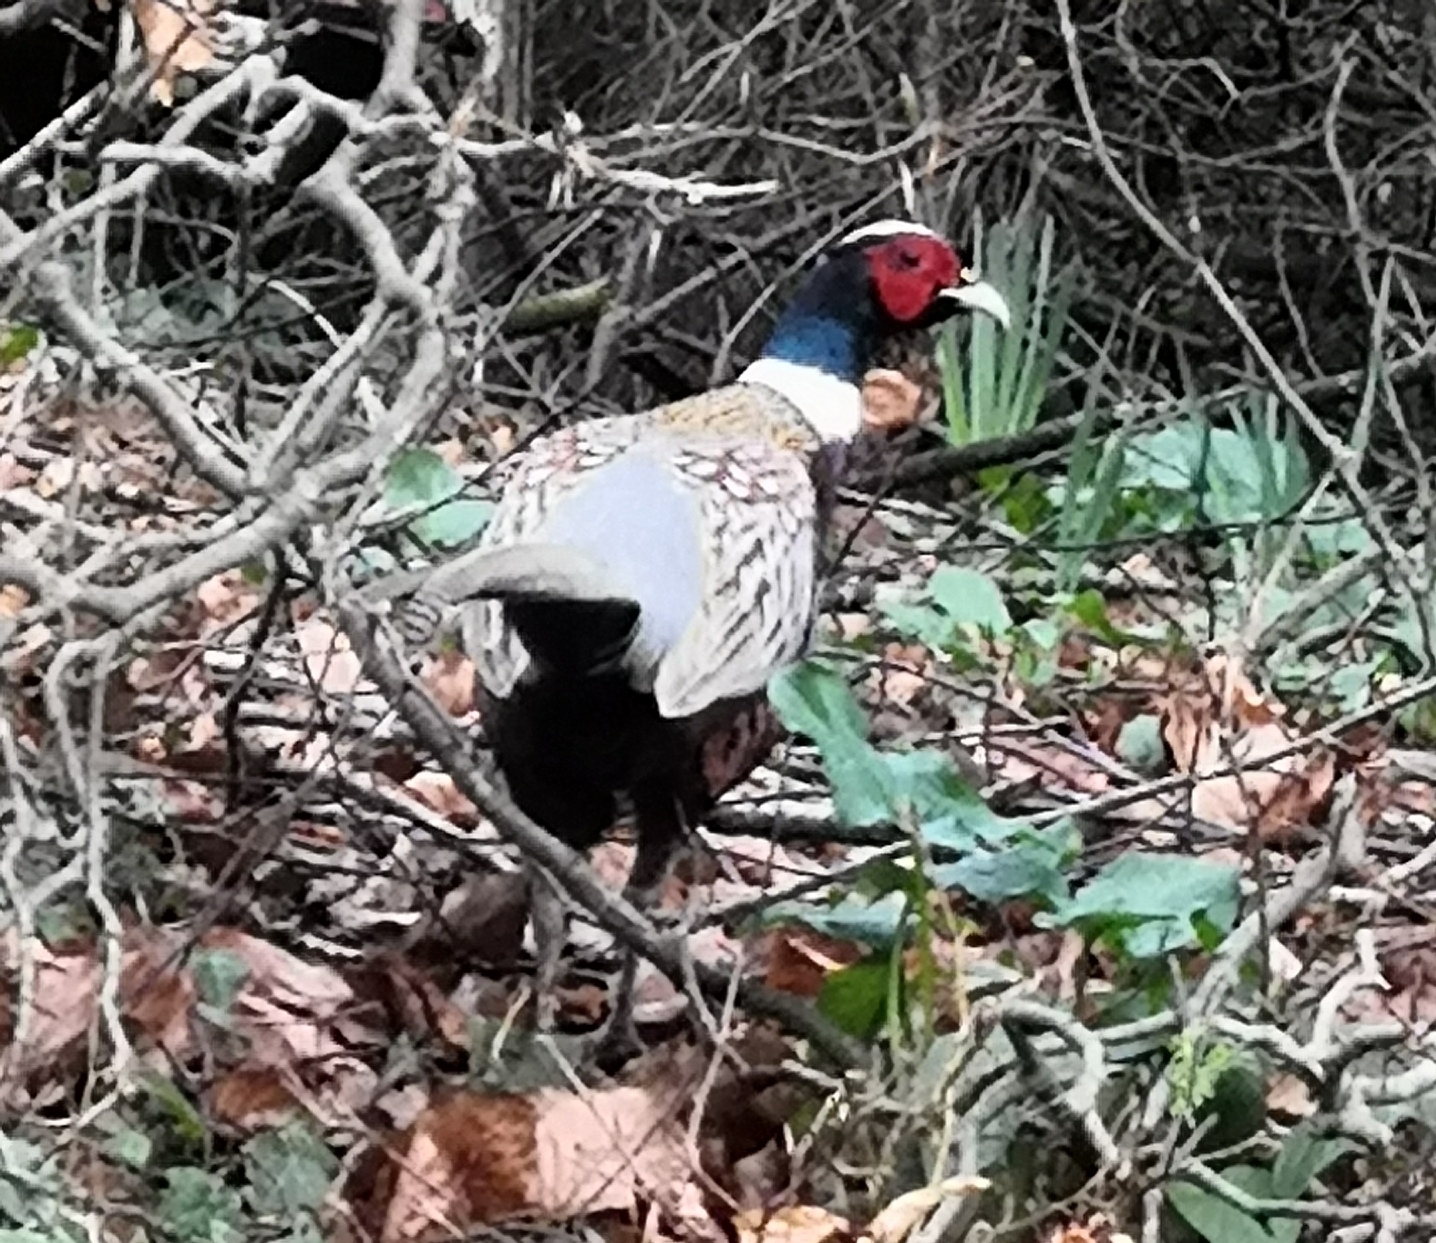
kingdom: Animalia
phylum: Chordata
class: Aves
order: Galliformes
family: Phasianidae
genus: Phasianus
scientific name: Phasianus colchicus
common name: Common pheasant
